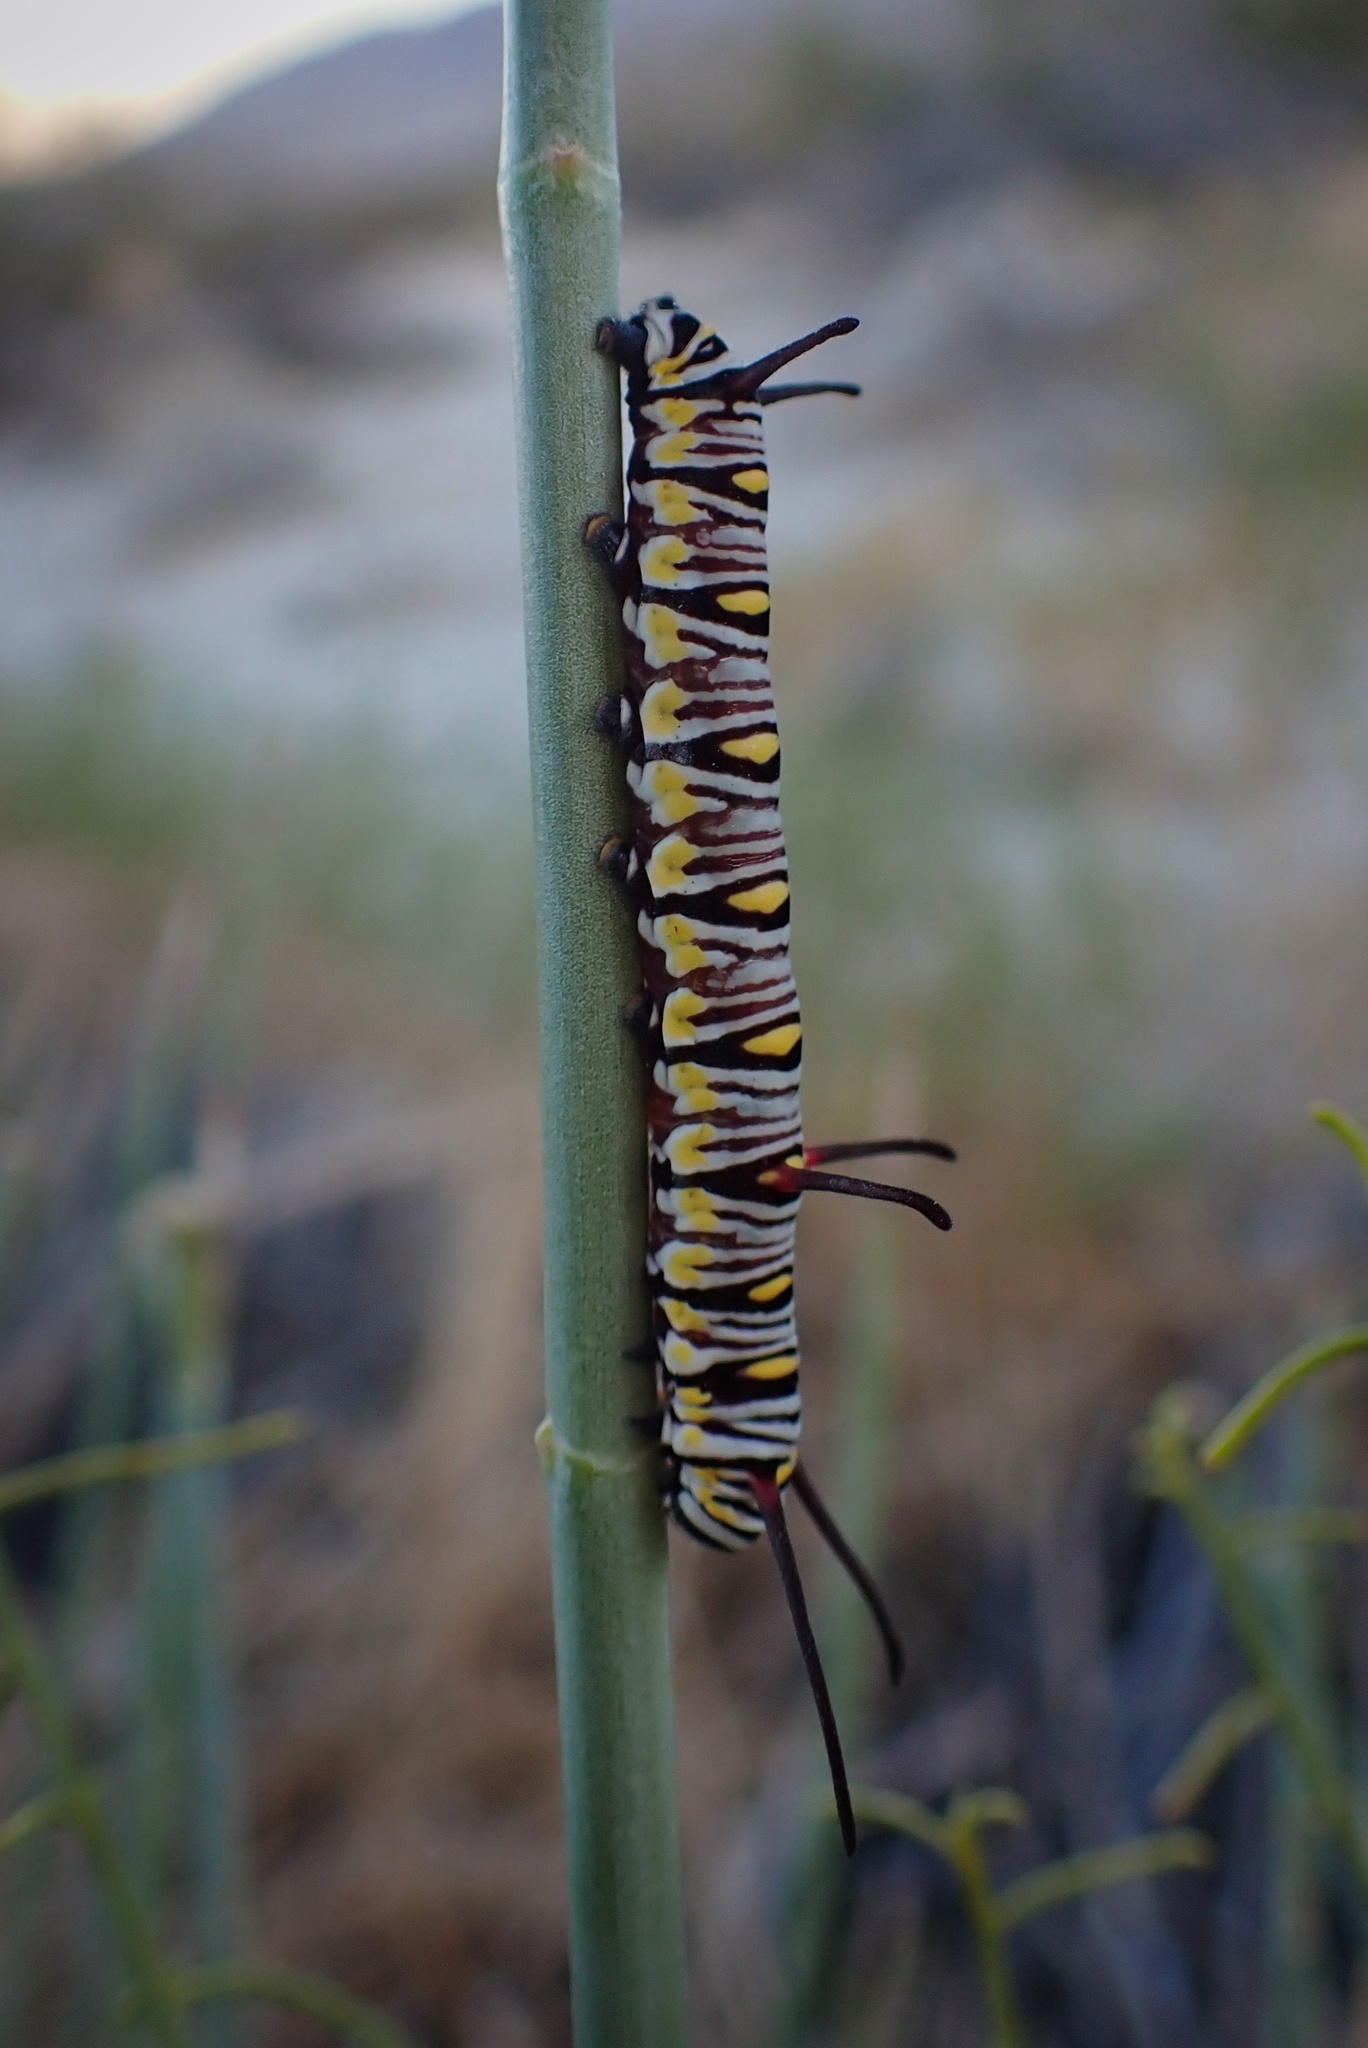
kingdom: Animalia
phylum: Arthropoda
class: Insecta
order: Lepidoptera
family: Nymphalidae
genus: Danaus
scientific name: Danaus gilippus
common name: Queen
